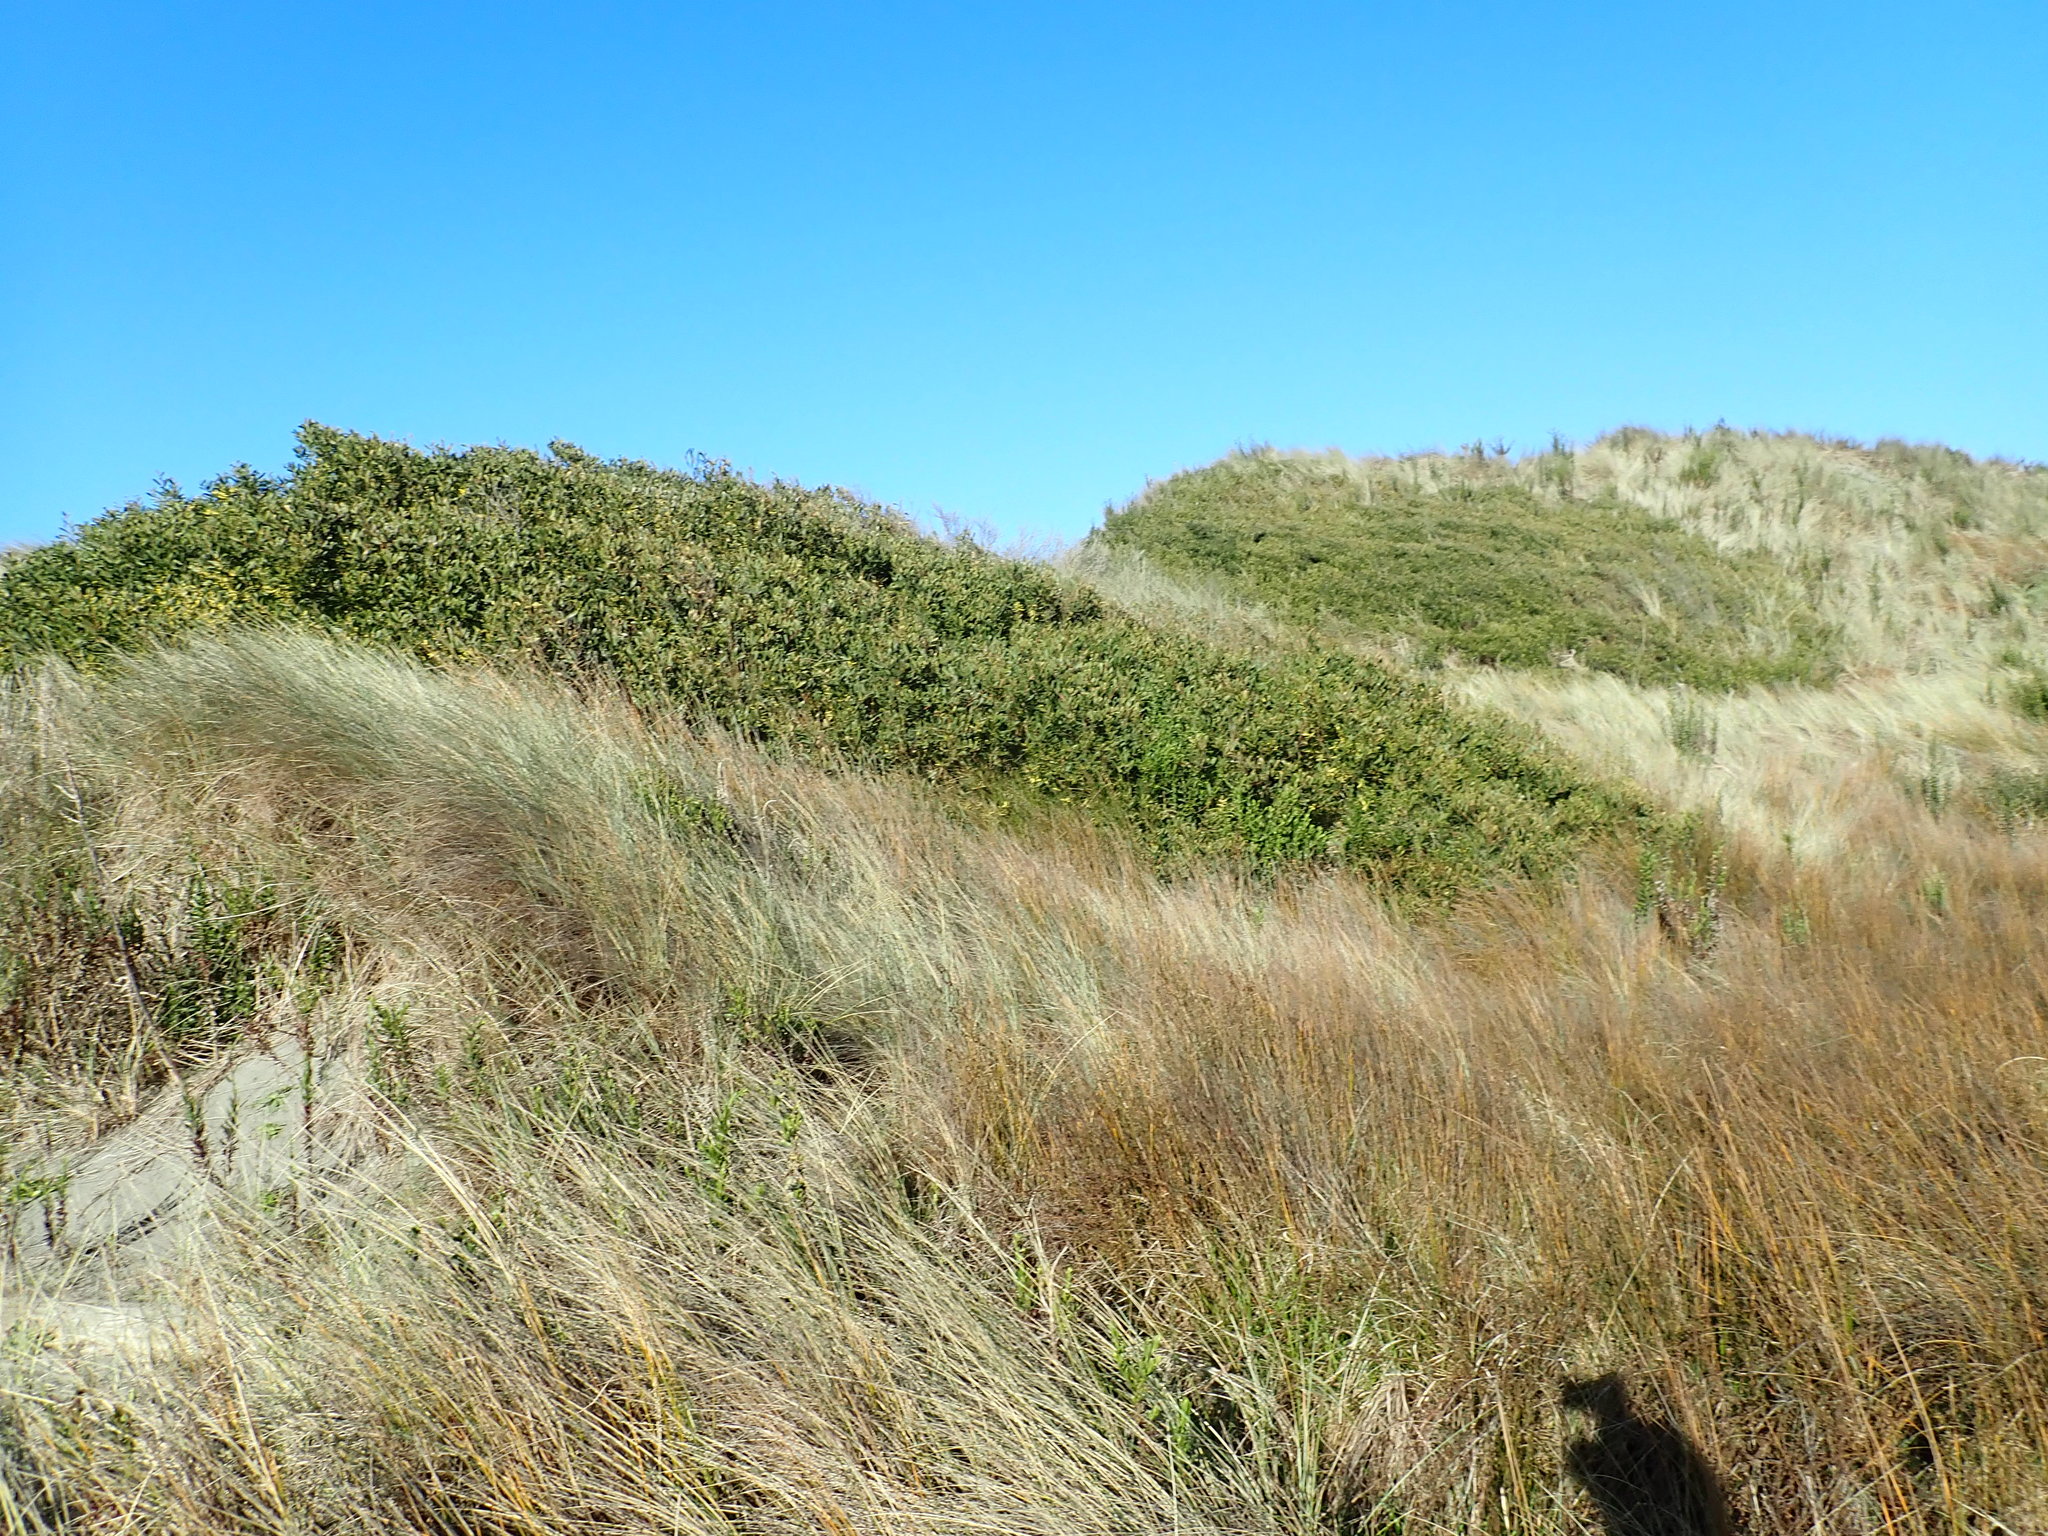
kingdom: Plantae
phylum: Tracheophyta
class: Magnoliopsida
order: Fabales
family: Fabaceae
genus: Acacia
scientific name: Acacia longifolia
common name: Sydney golden wattle
